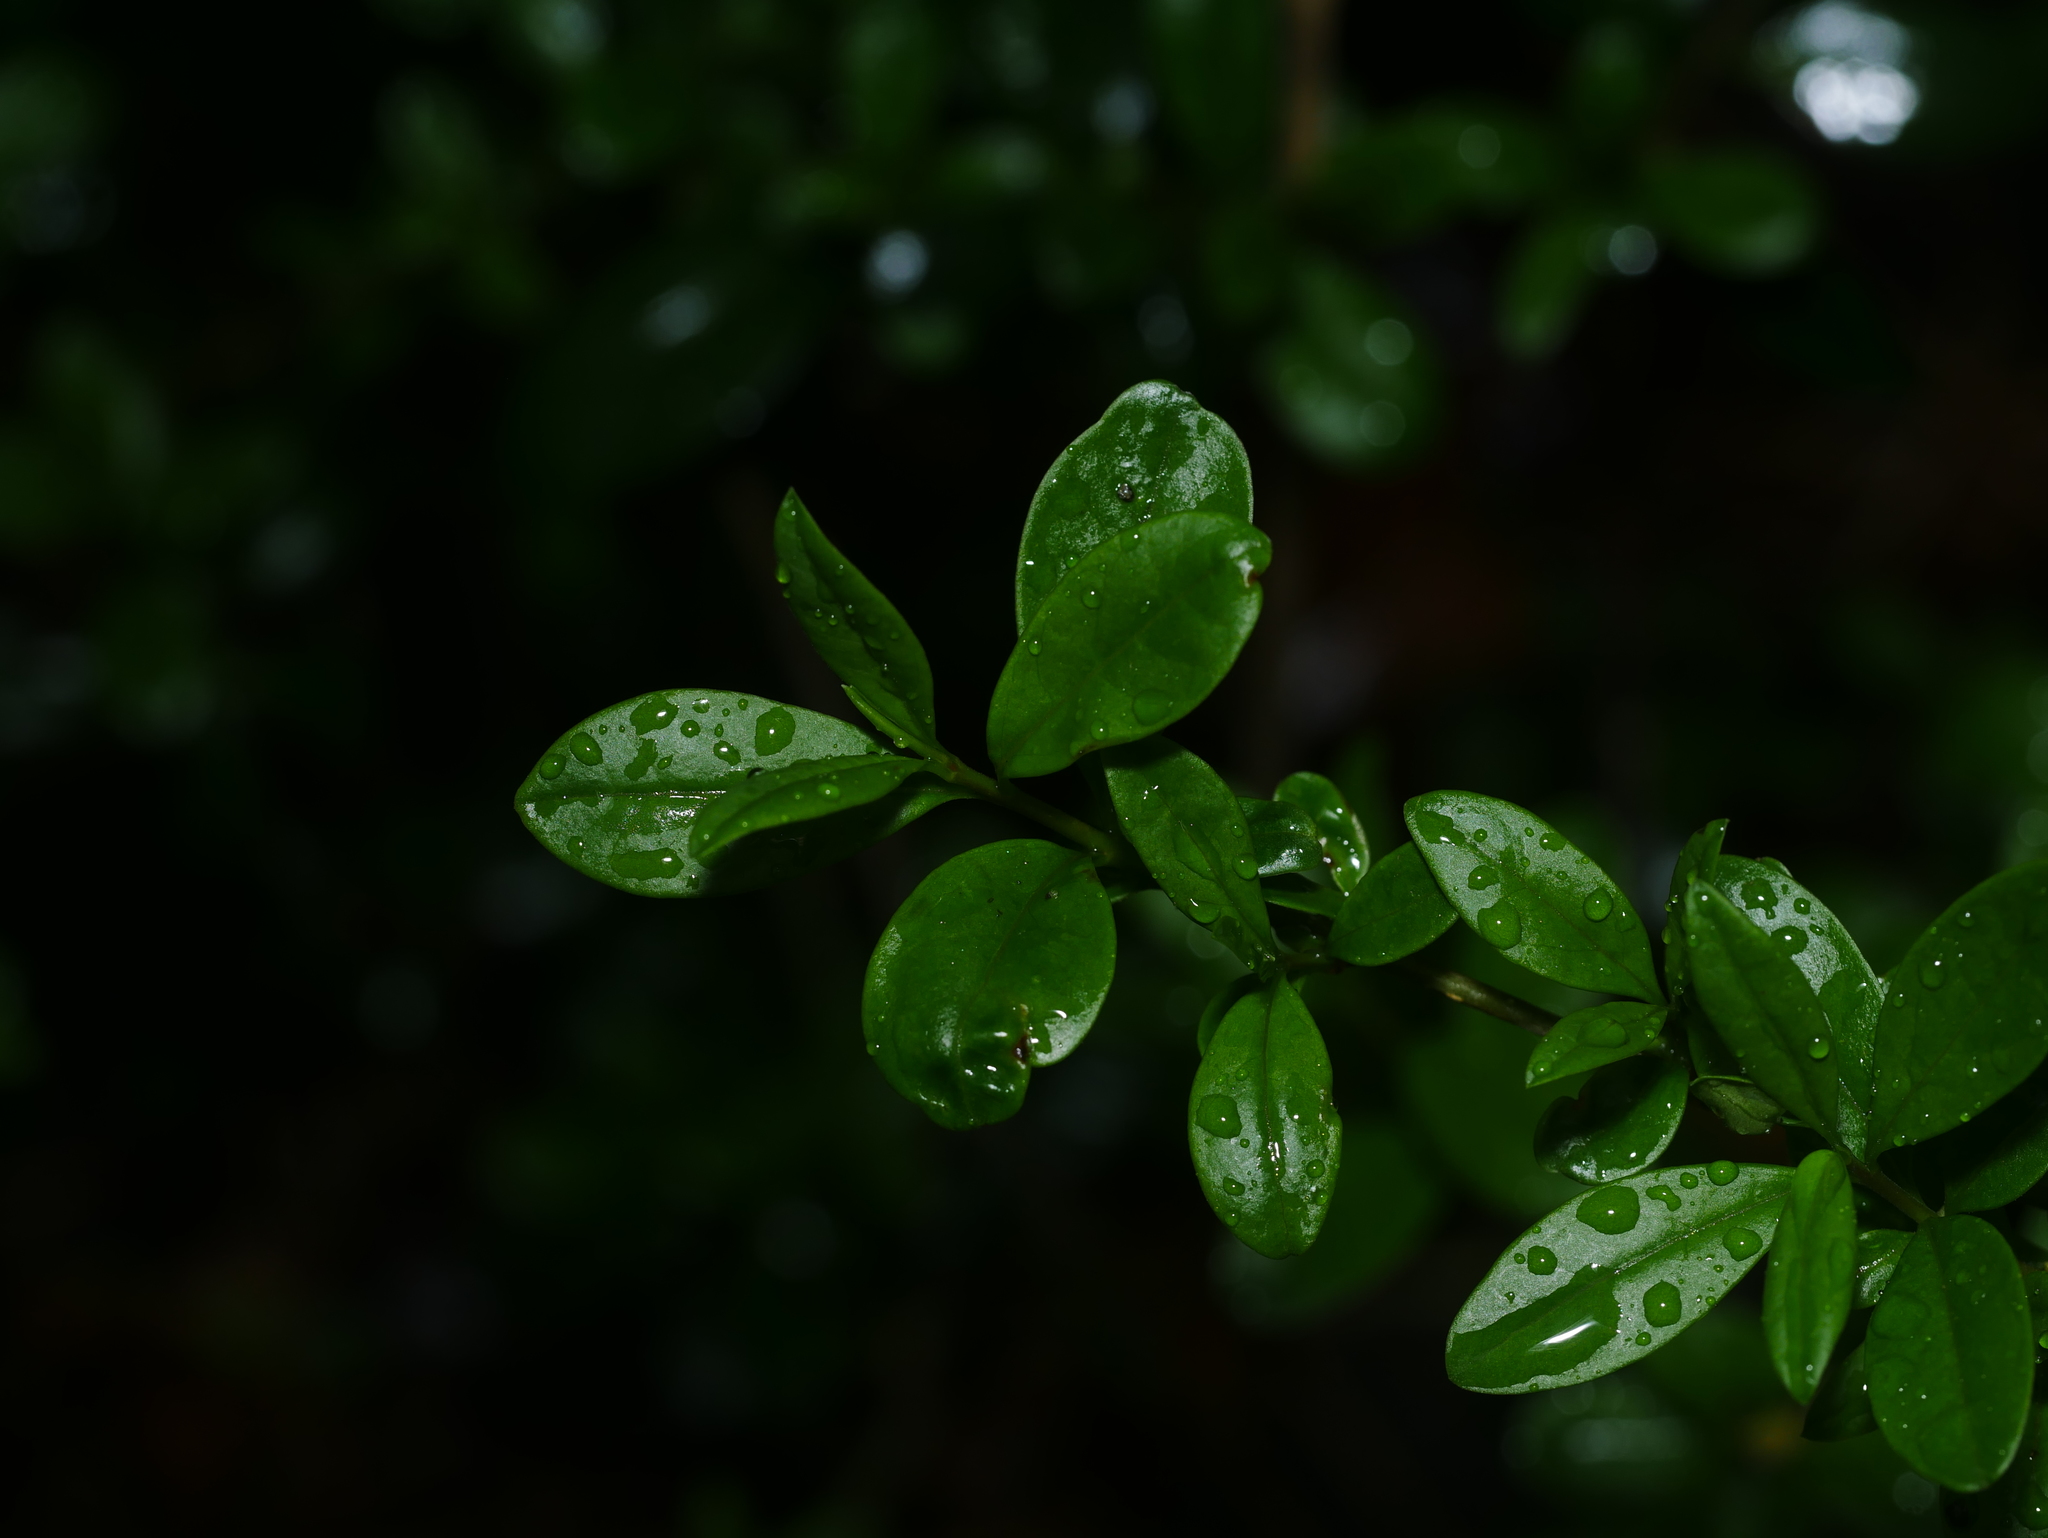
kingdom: Plantae
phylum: Tracheophyta
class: Magnoliopsida
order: Lamiales
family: Oleaceae
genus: Ligustrum
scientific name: Ligustrum vulgare
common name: Wild privet
